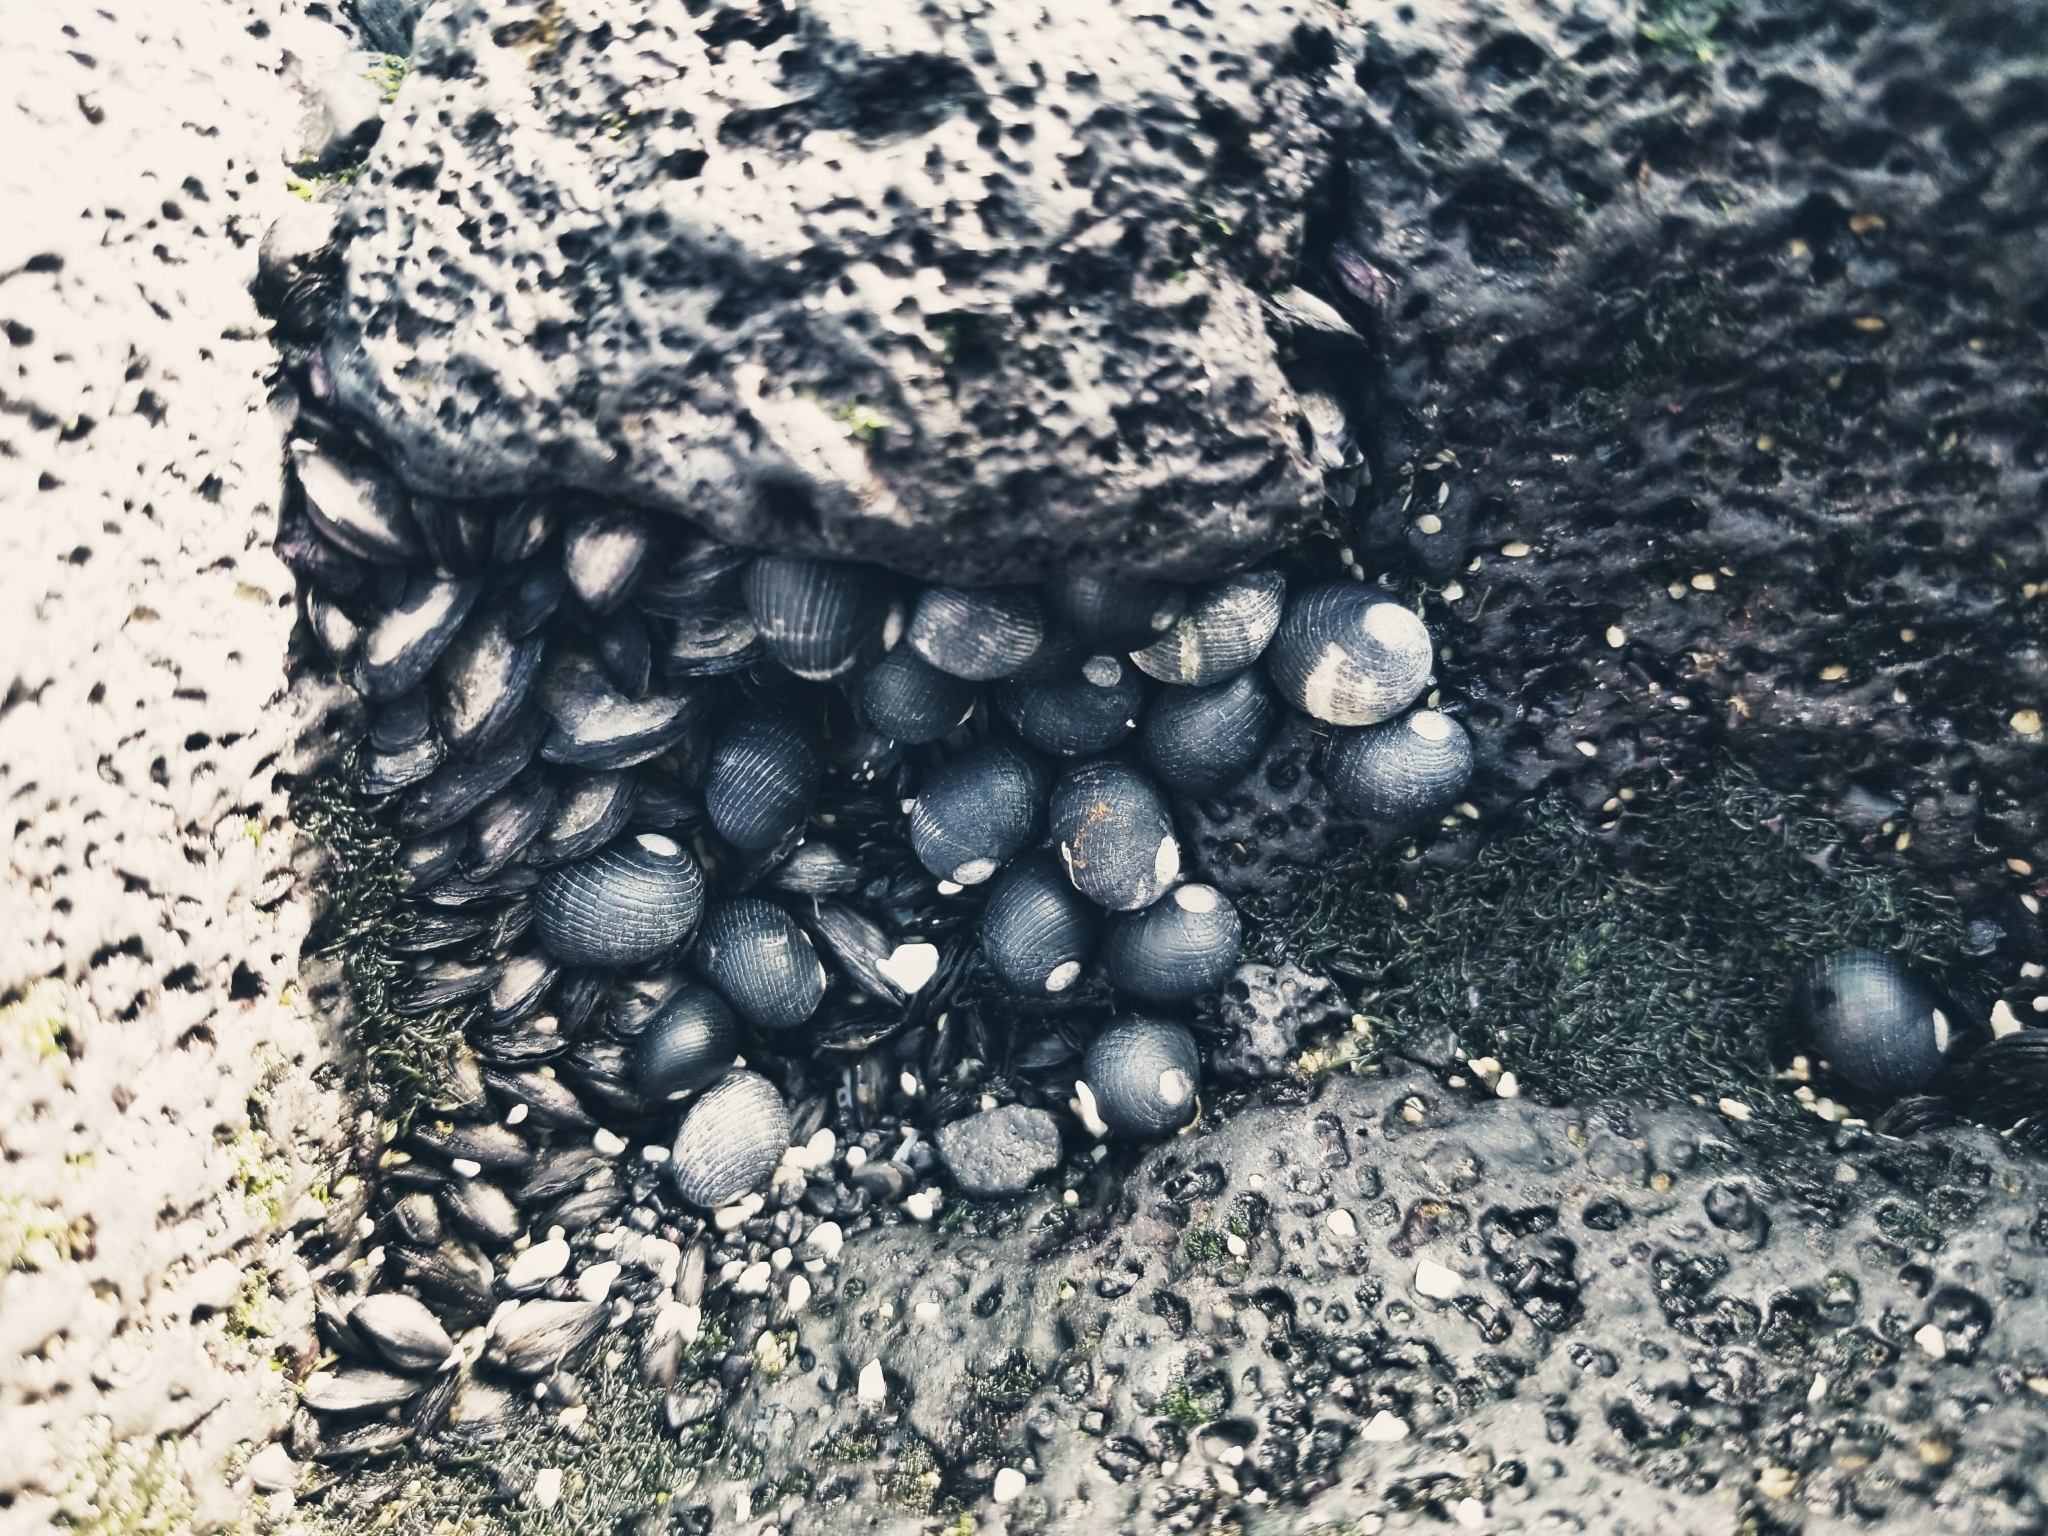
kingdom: Animalia
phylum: Mollusca
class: Gastropoda
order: Cycloneritida
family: Neritidae
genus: Nerita
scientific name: Nerita picea
